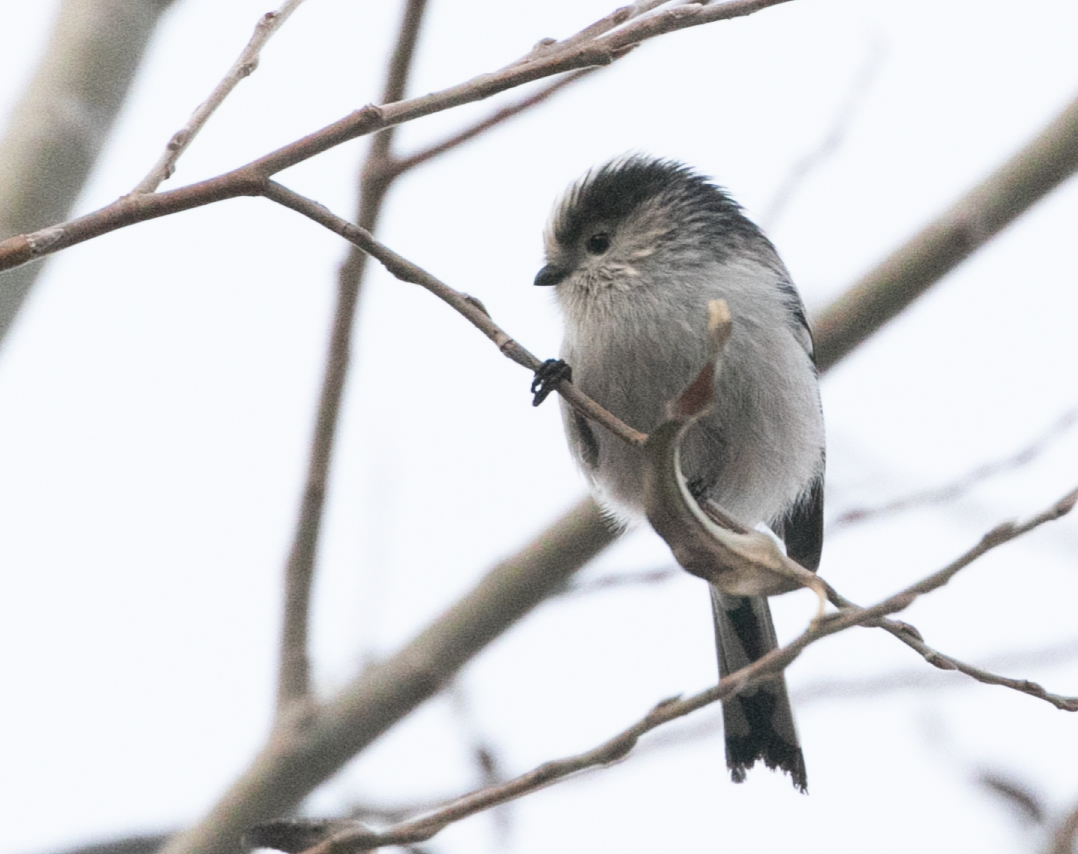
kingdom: Animalia
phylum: Chordata
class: Aves
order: Passeriformes
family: Aegithalidae
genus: Aegithalos
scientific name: Aegithalos caudatus
